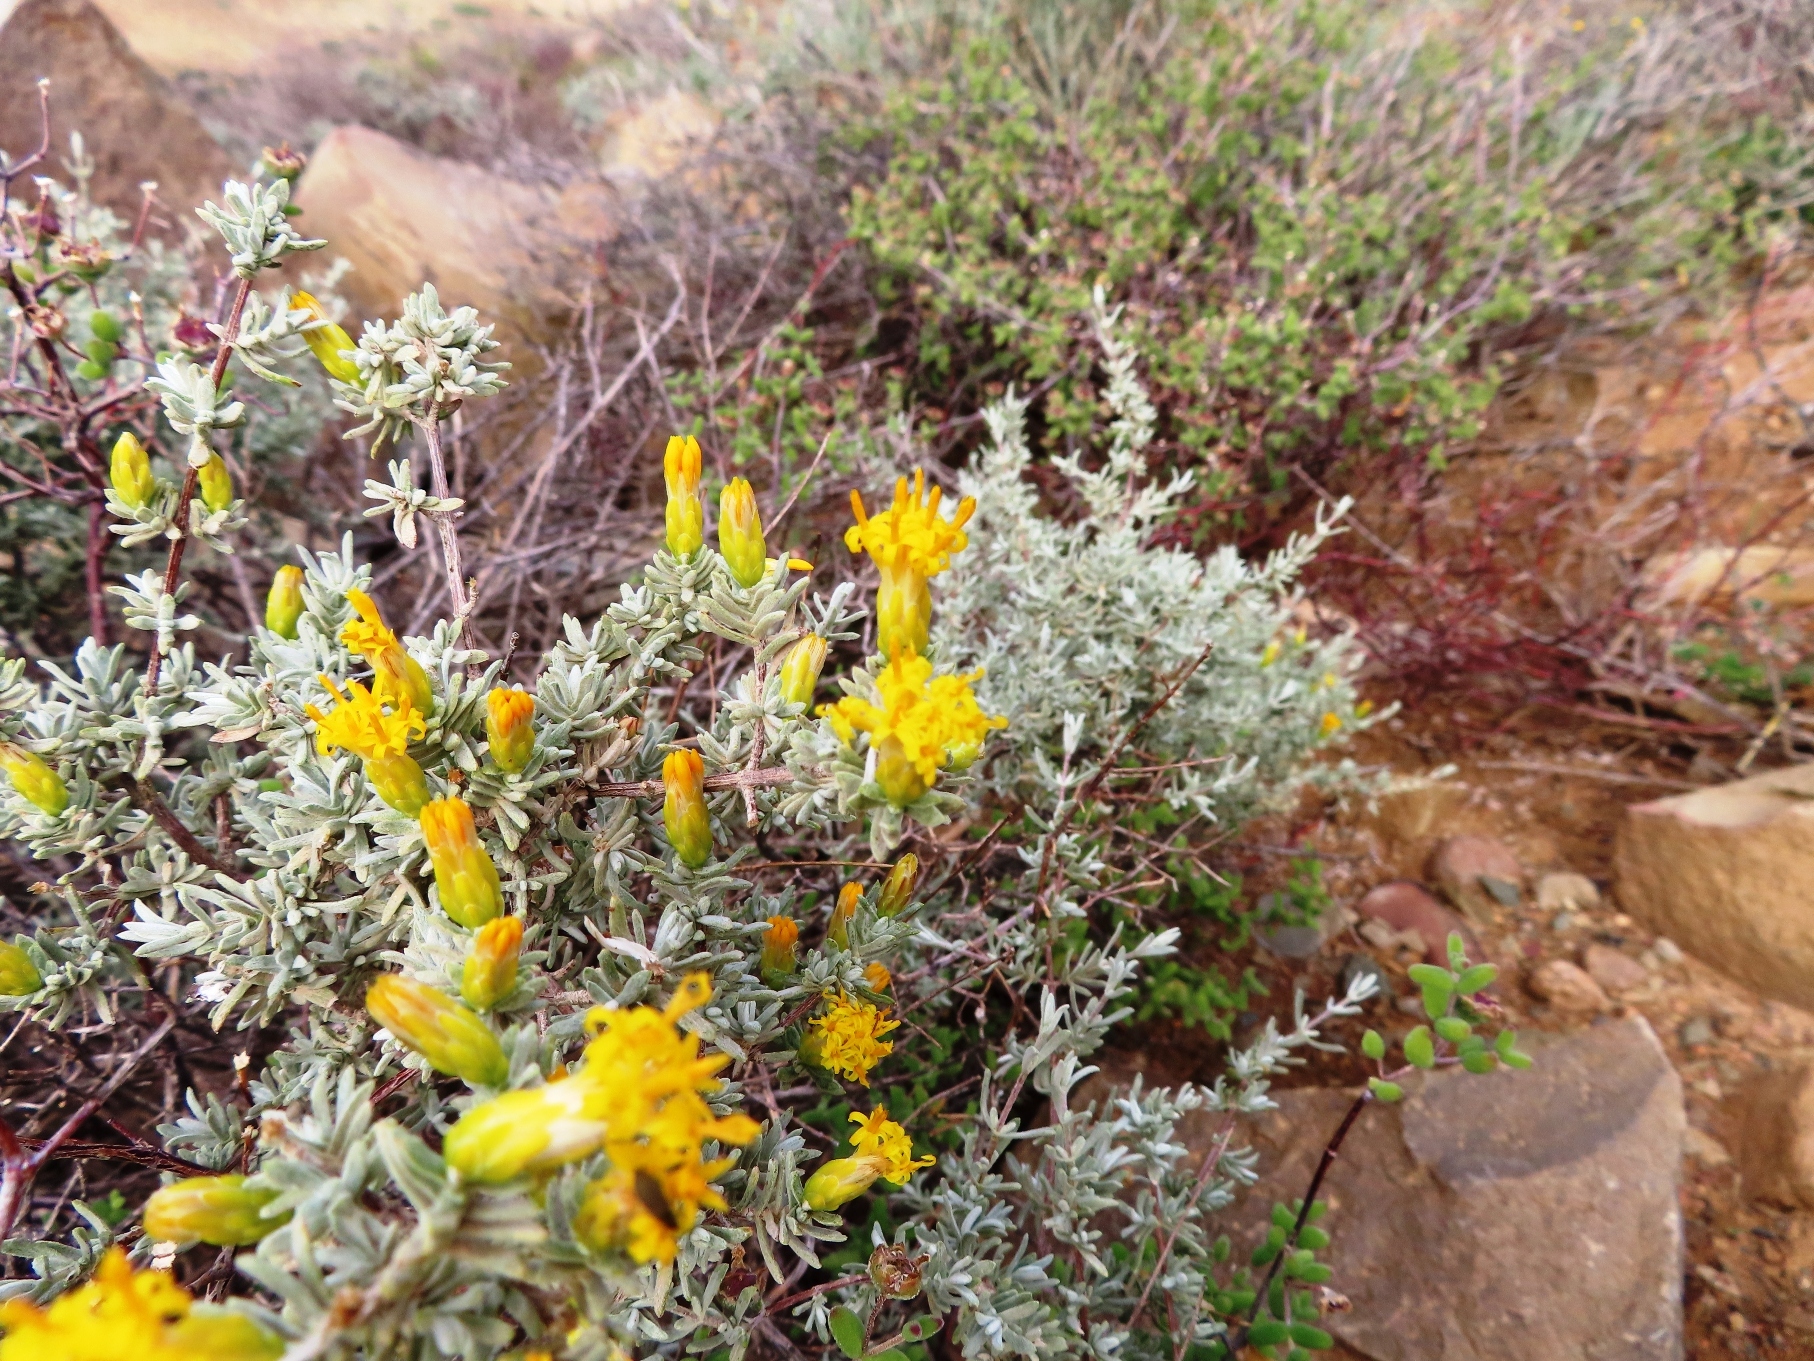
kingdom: Plantae
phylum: Tracheophyta
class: Magnoliopsida
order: Asterales
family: Asteraceae
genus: Pteronia
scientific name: Pteronia incana
